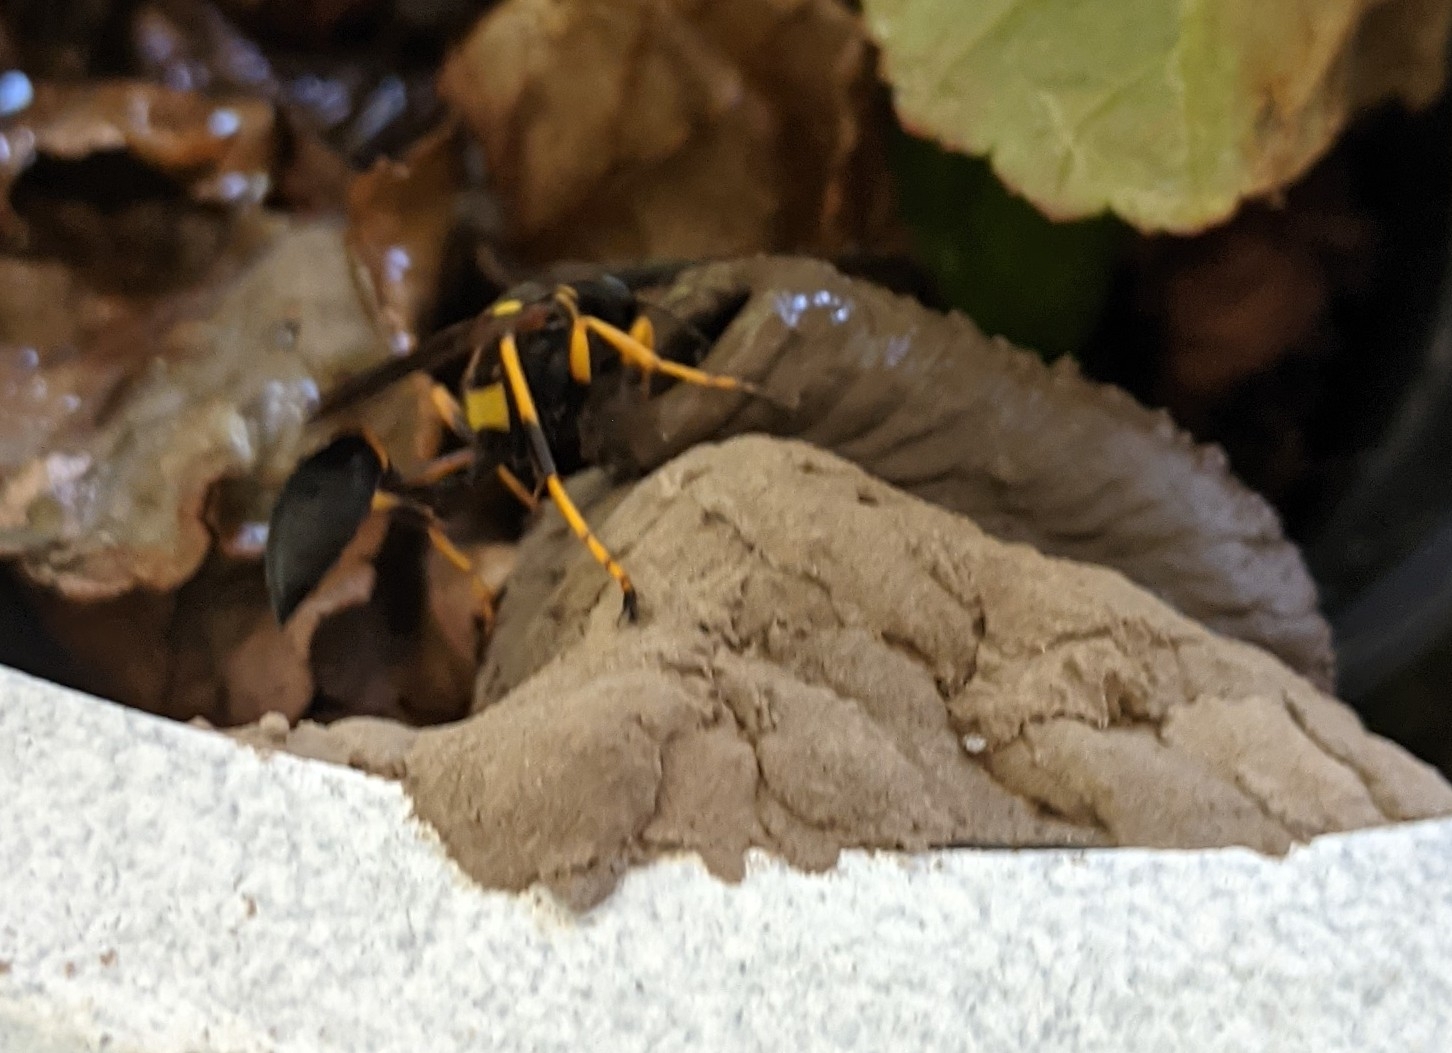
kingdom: Animalia
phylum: Arthropoda
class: Insecta
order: Hymenoptera
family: Sphecidae
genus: Sceliphron
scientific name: Sceliphron caementarium
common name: Mud dauber
